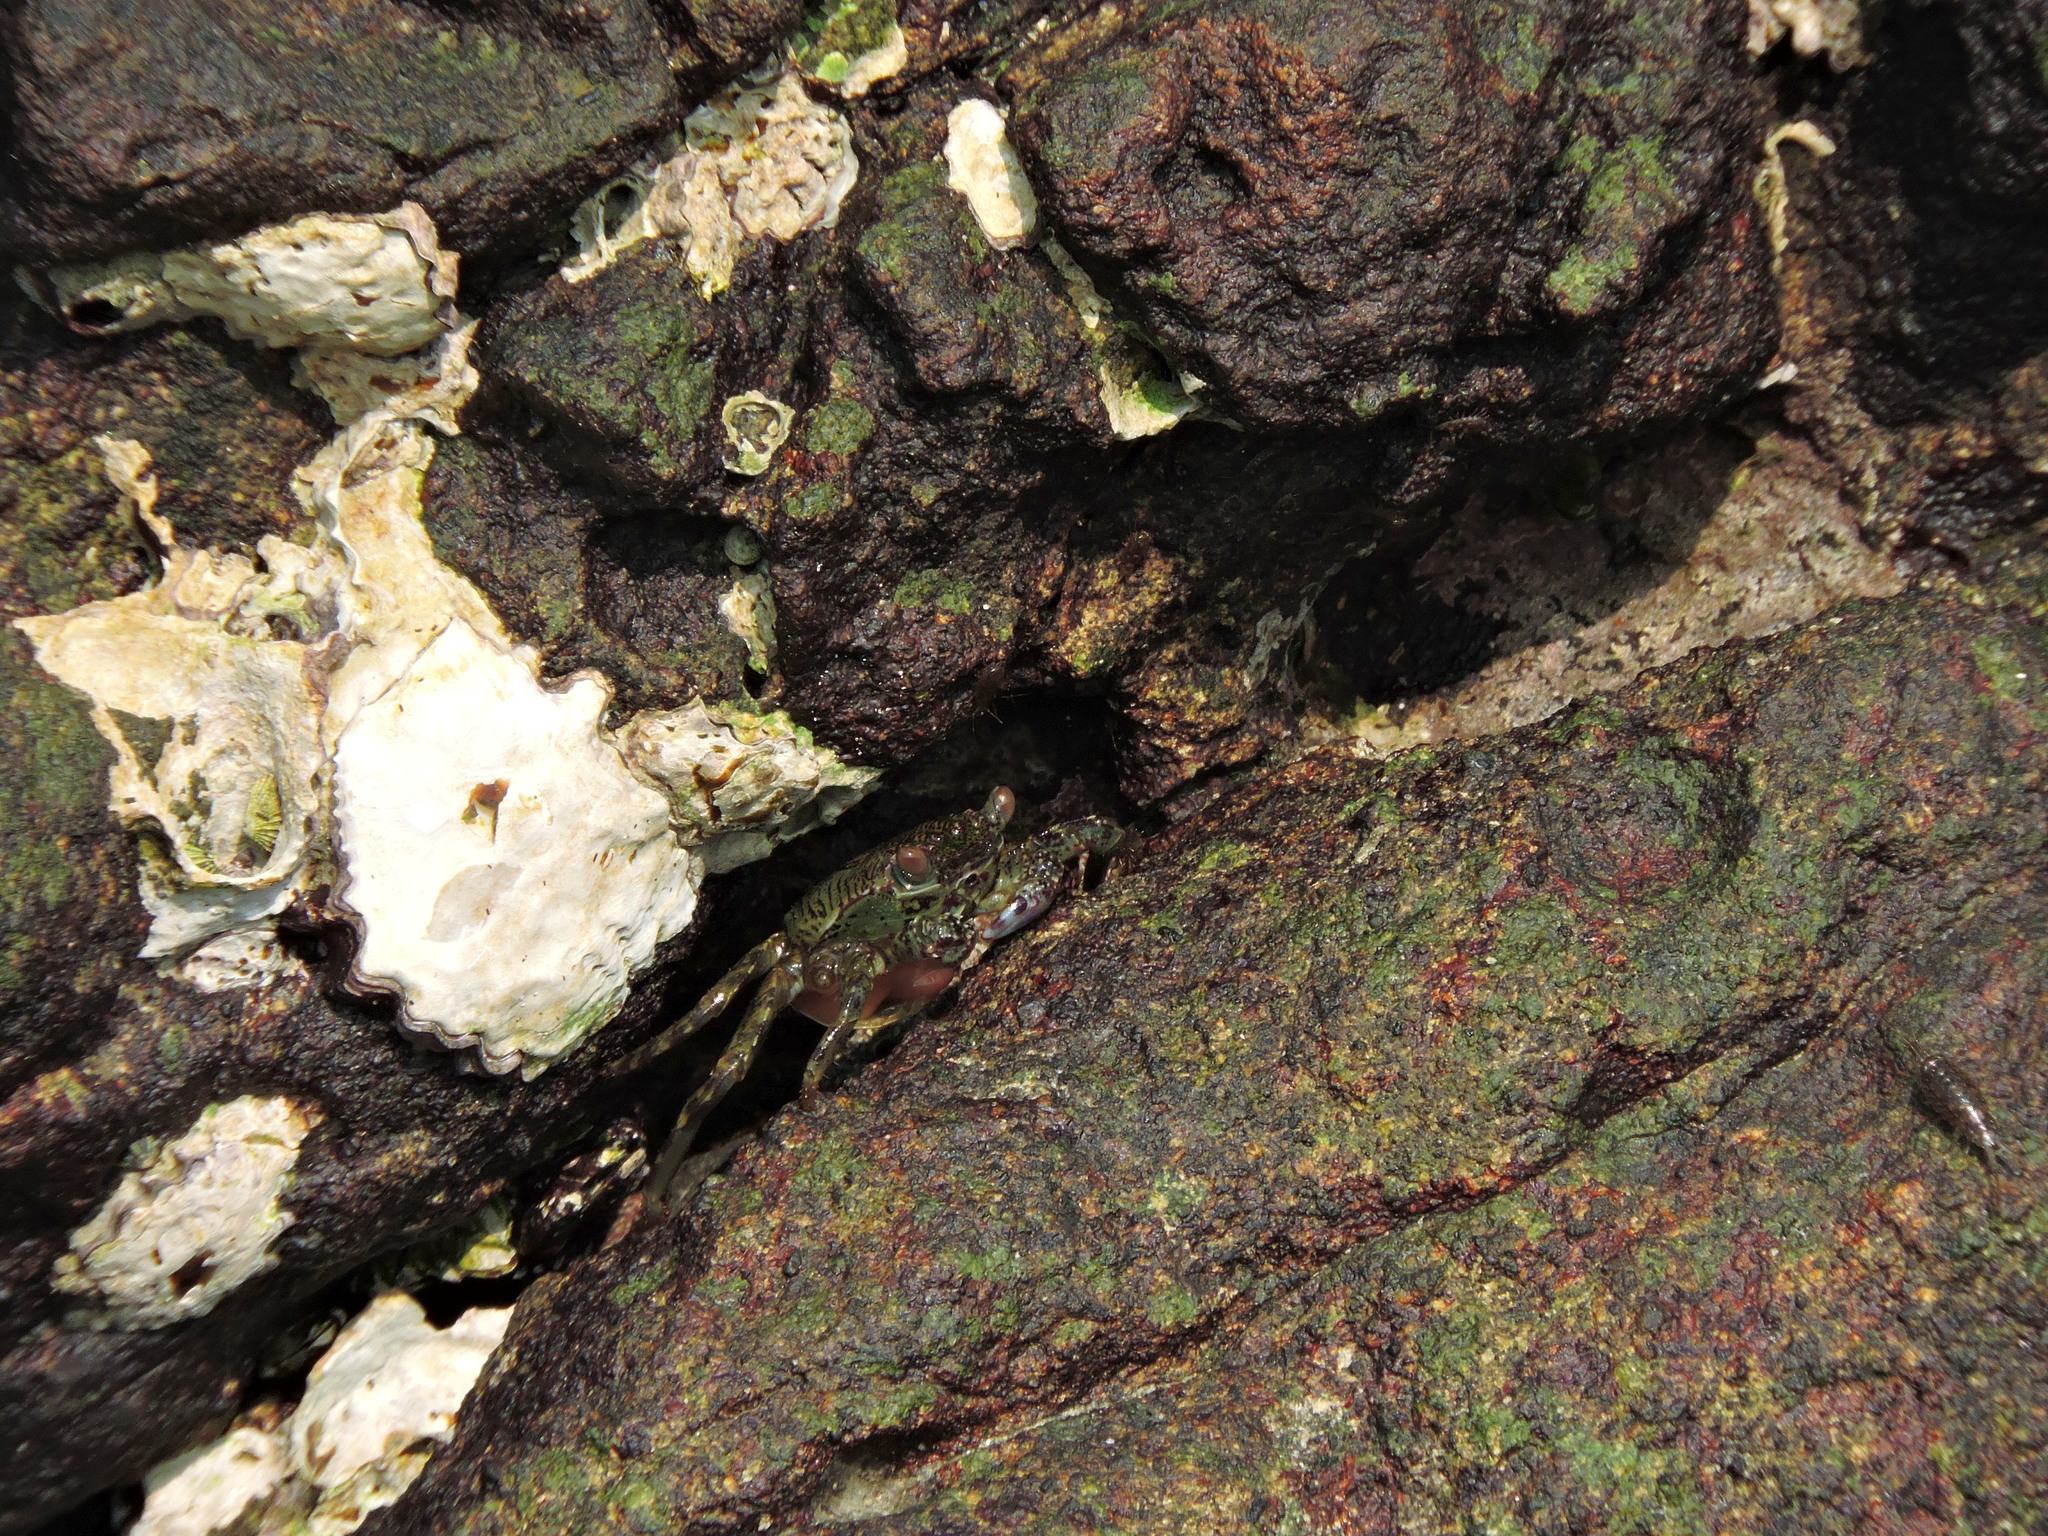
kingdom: Animalia
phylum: Arthropoda
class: Malacostraca
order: Decapoda
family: Grapsidae
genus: Grapsus
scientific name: Grapsus albolineatus
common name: Mottled lightfoot crab
